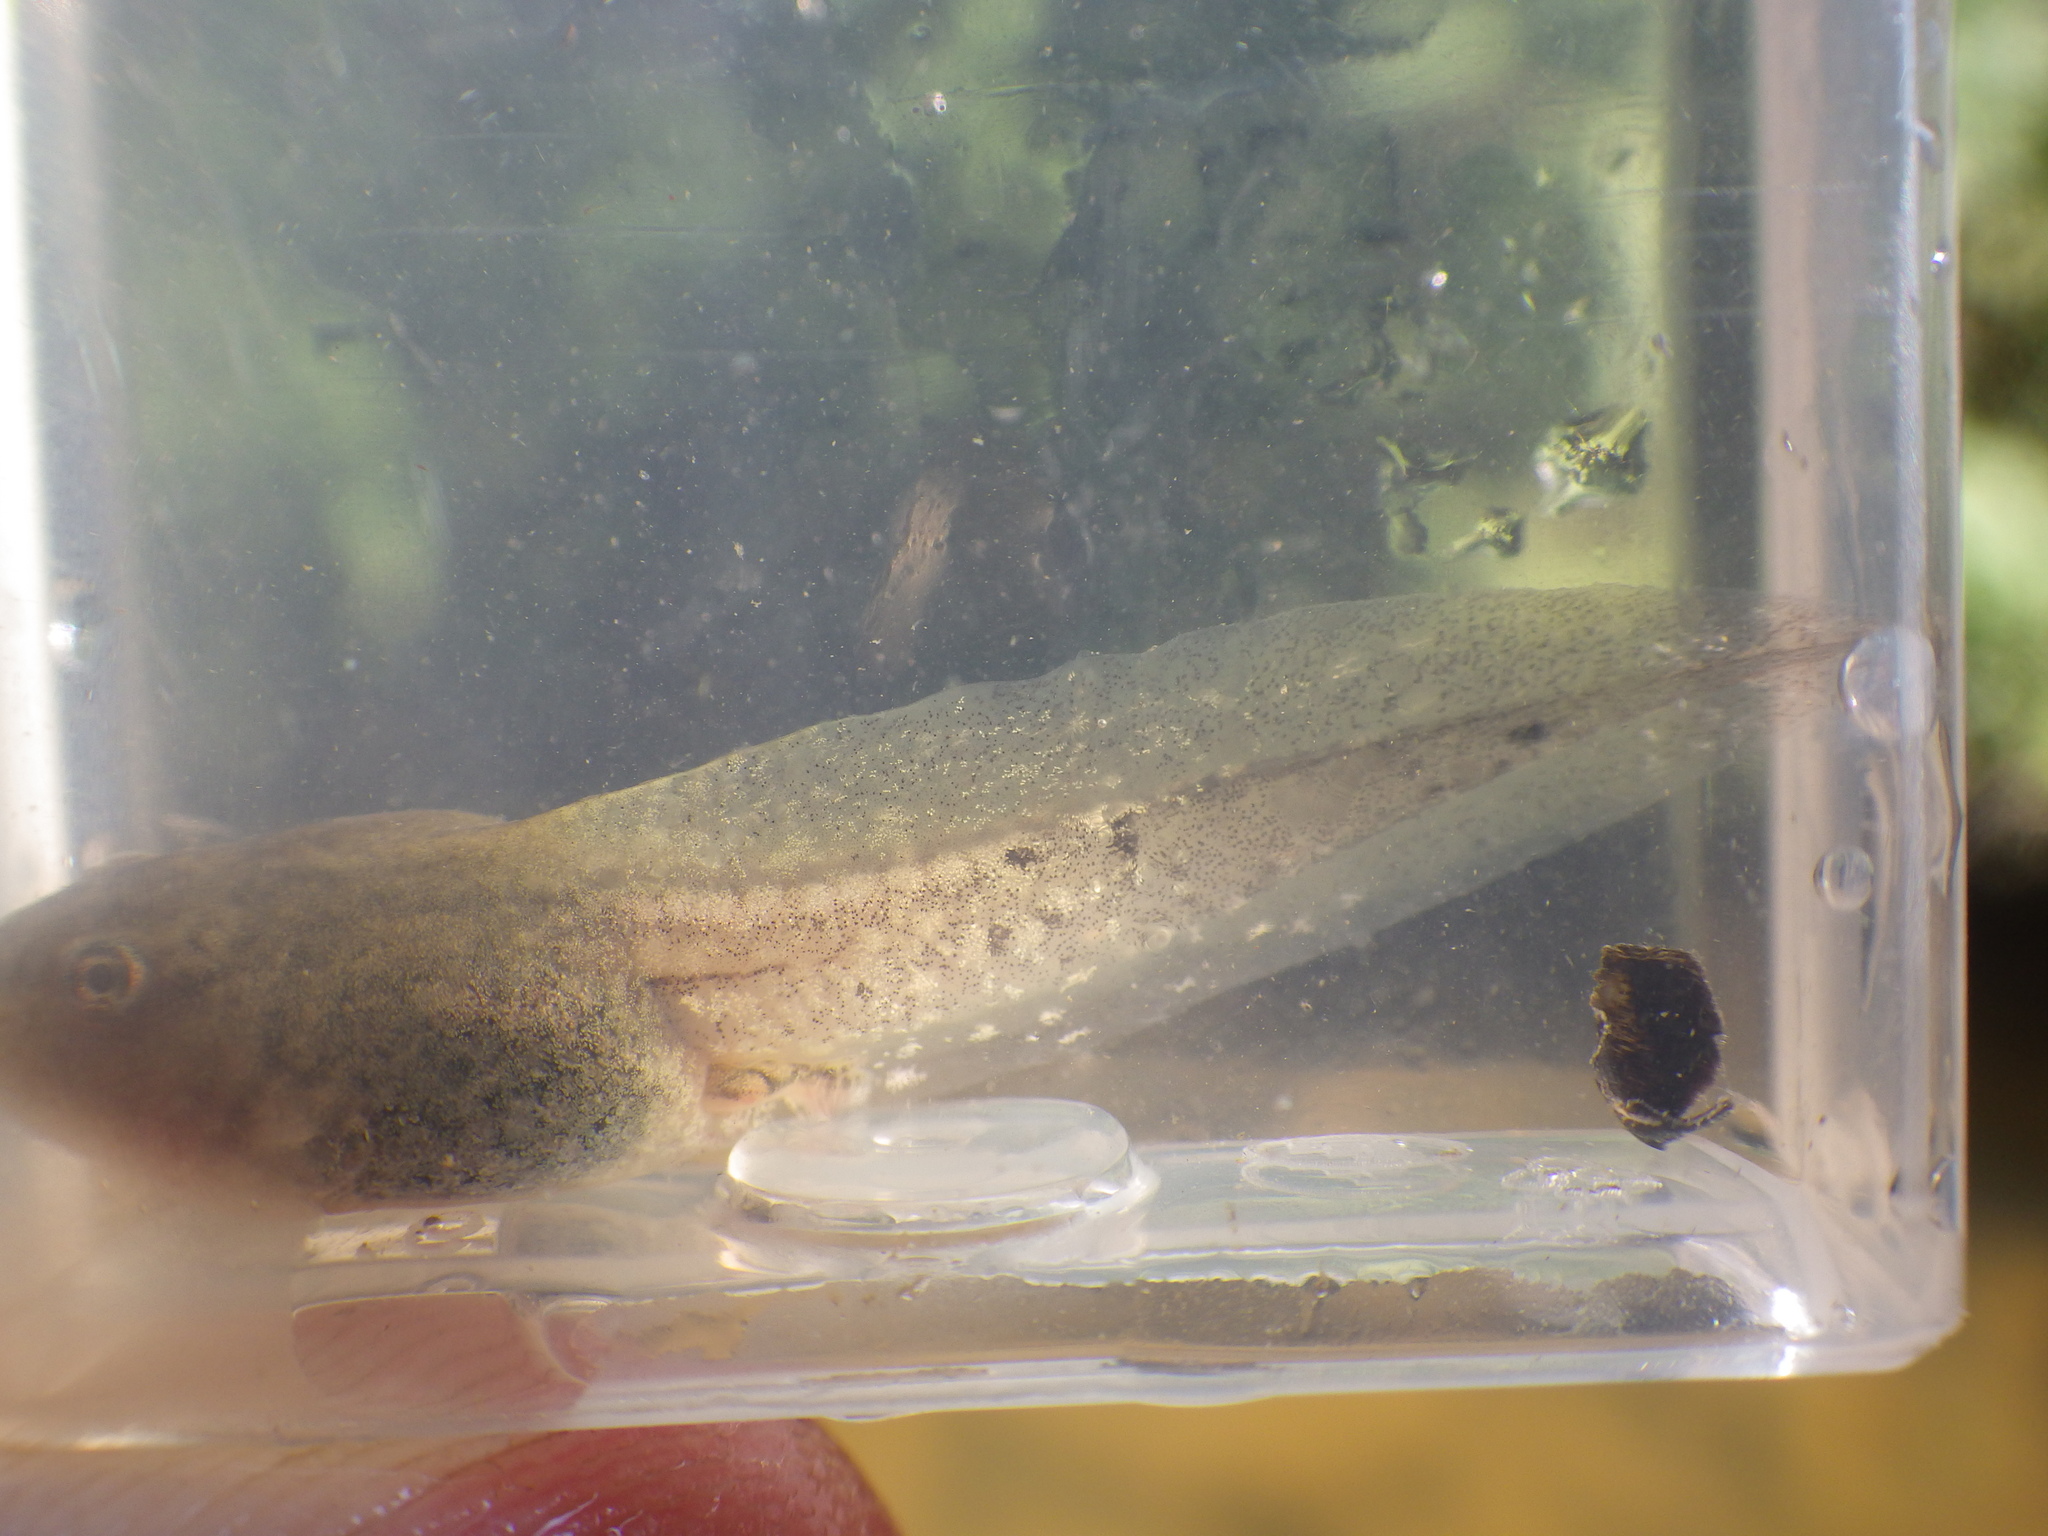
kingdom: Animalia
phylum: Chordata
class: Amphibia
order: Anura
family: Ranidae
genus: Rana
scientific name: Rana temporaria
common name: Common frog
